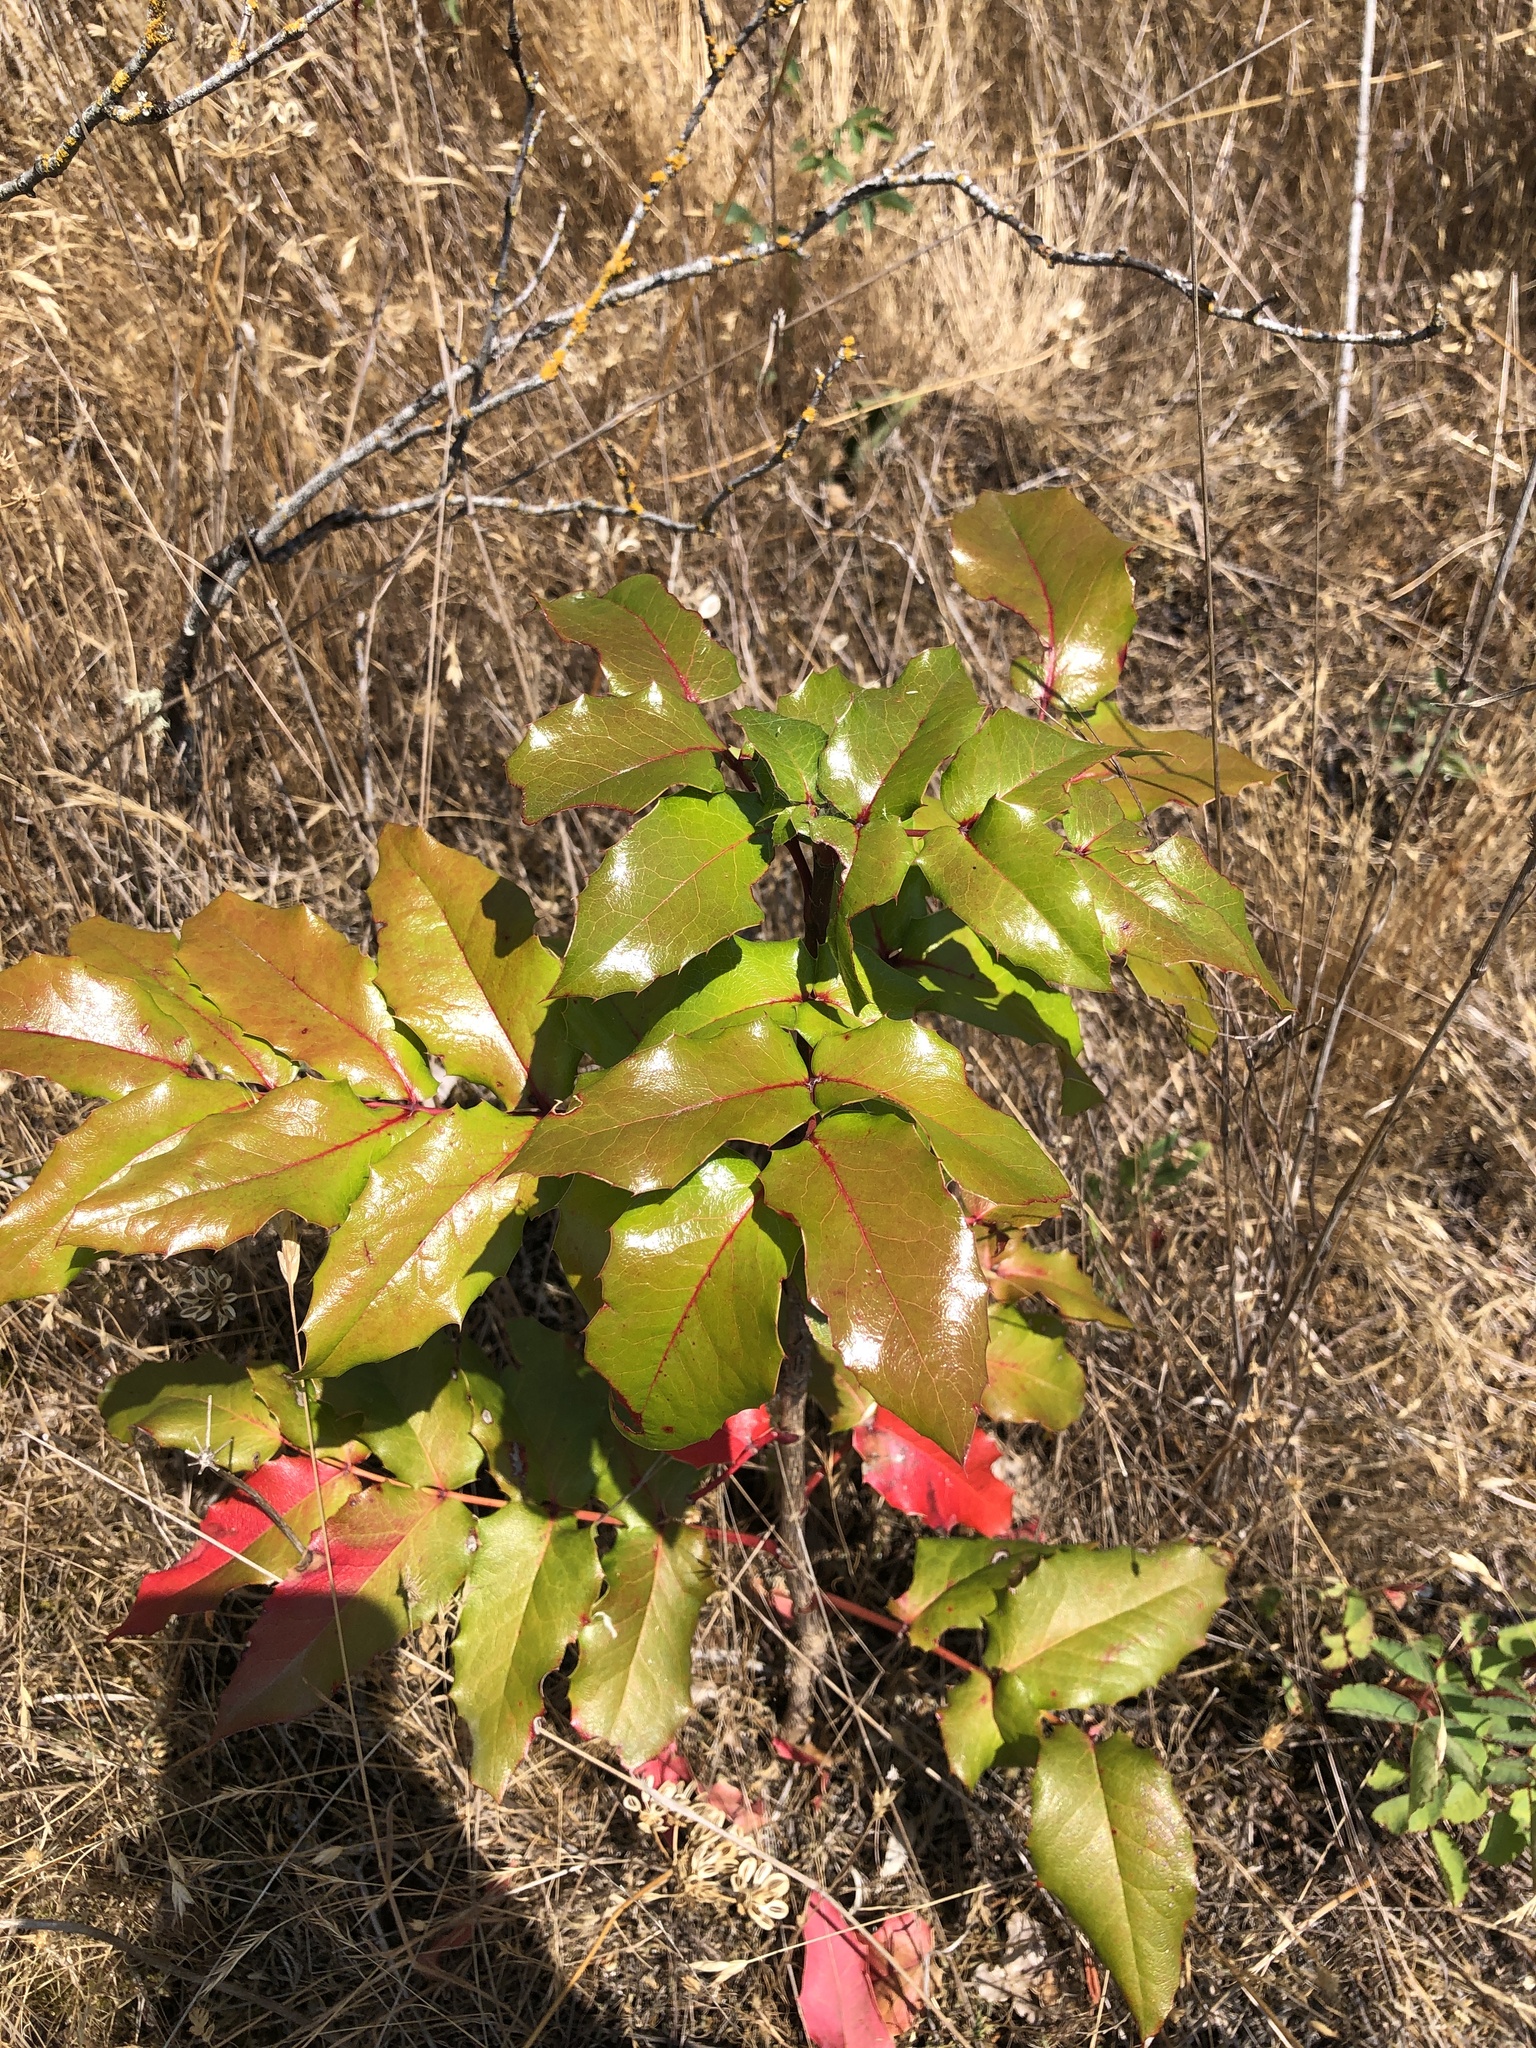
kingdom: Plantae
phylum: Tracheophyta
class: Magnoliopsida
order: Ranunculales
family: Berberidaceae
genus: Mahonia
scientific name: Mahonia aquifolium
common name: Oregon-grape
